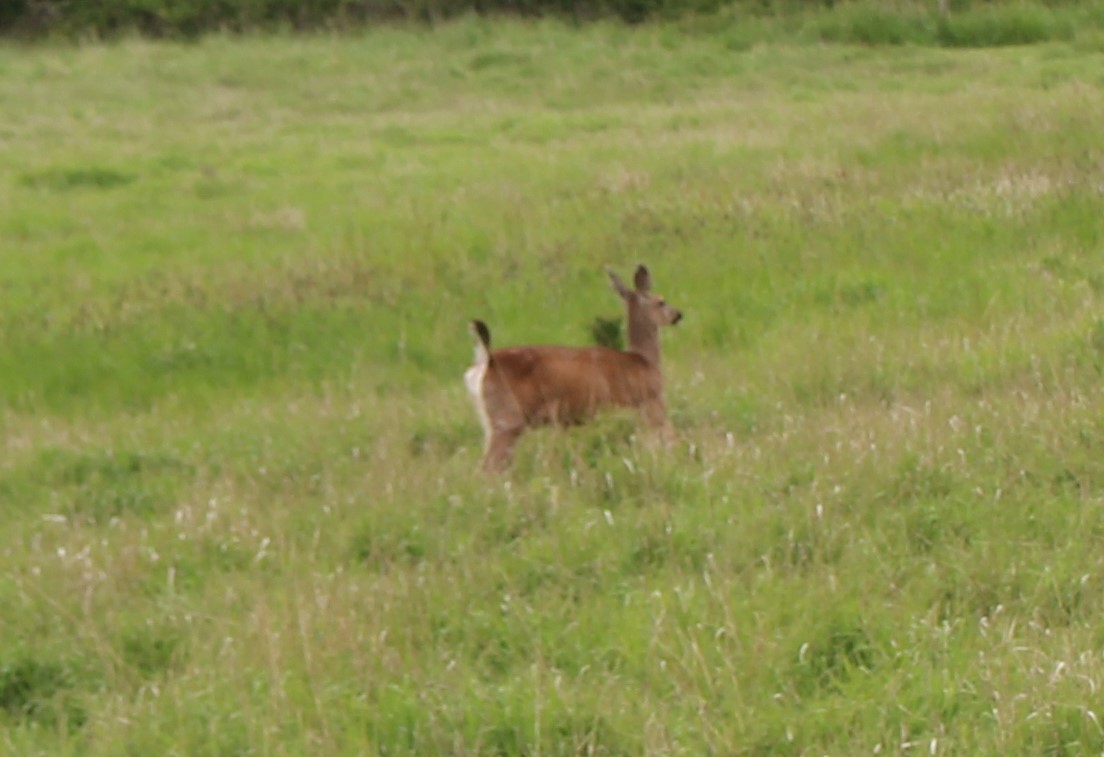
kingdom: Animalia
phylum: Chordata
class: Mammalia
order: Artiodactyla
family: Cervidae
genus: Odocoileus
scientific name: Odocoileus hemionus
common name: Mule deer
